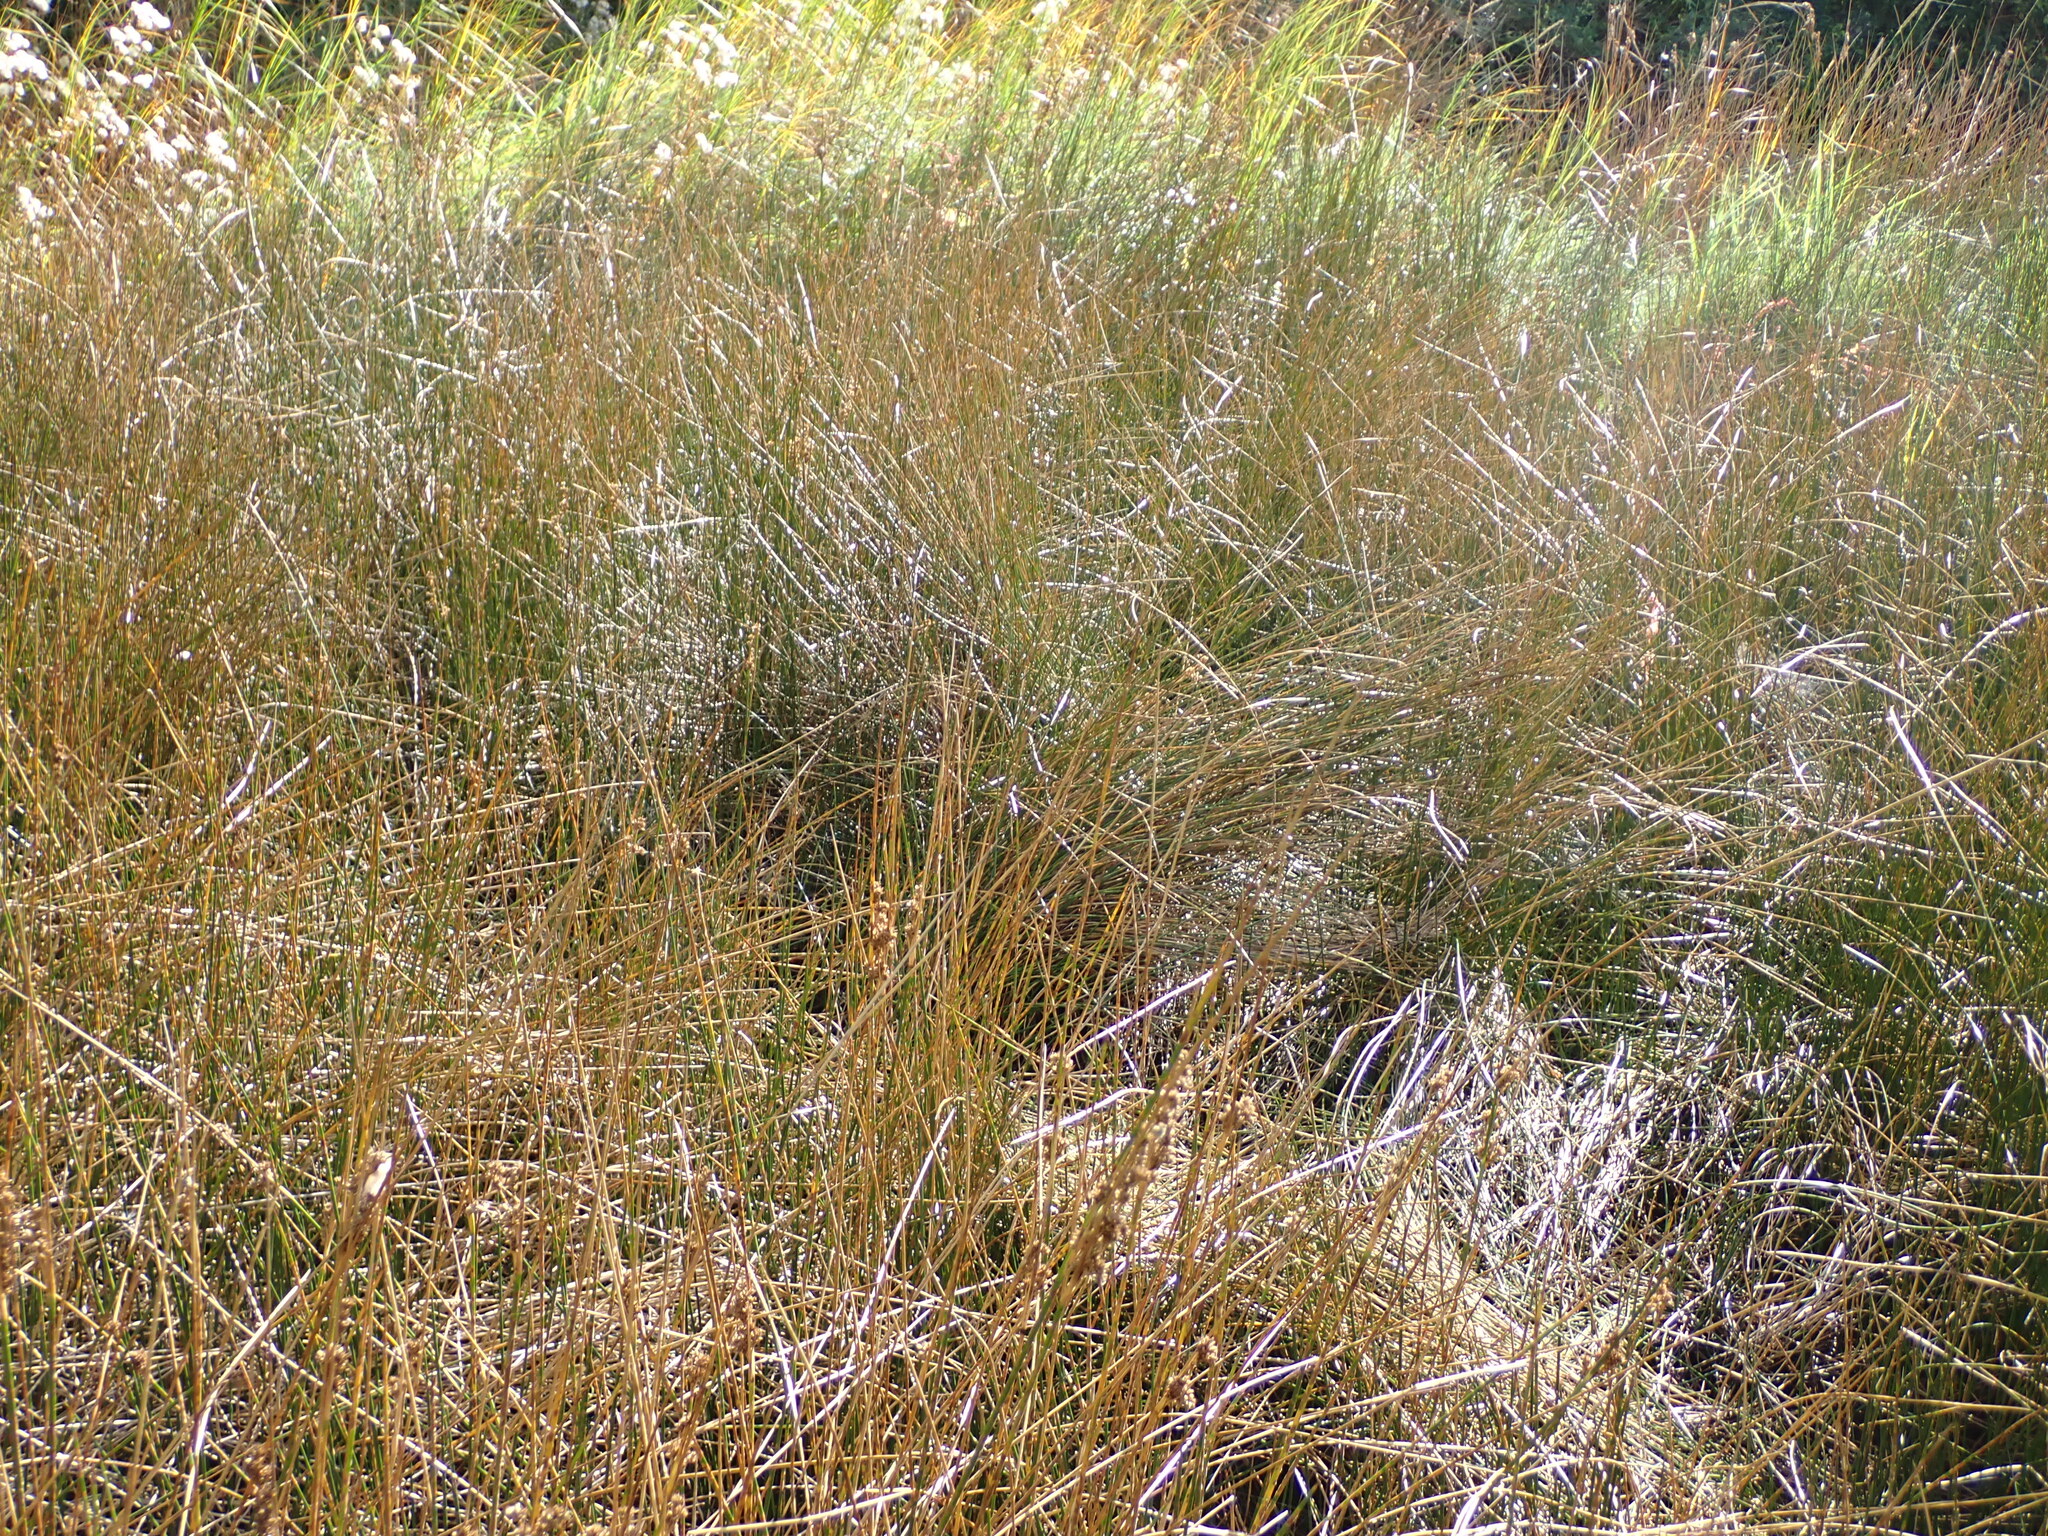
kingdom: Plantae
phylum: Tracheophyta
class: Liliopsida
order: Poales
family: Juncaceae
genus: Juncus
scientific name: Juncus maritimus
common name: Sea rush
